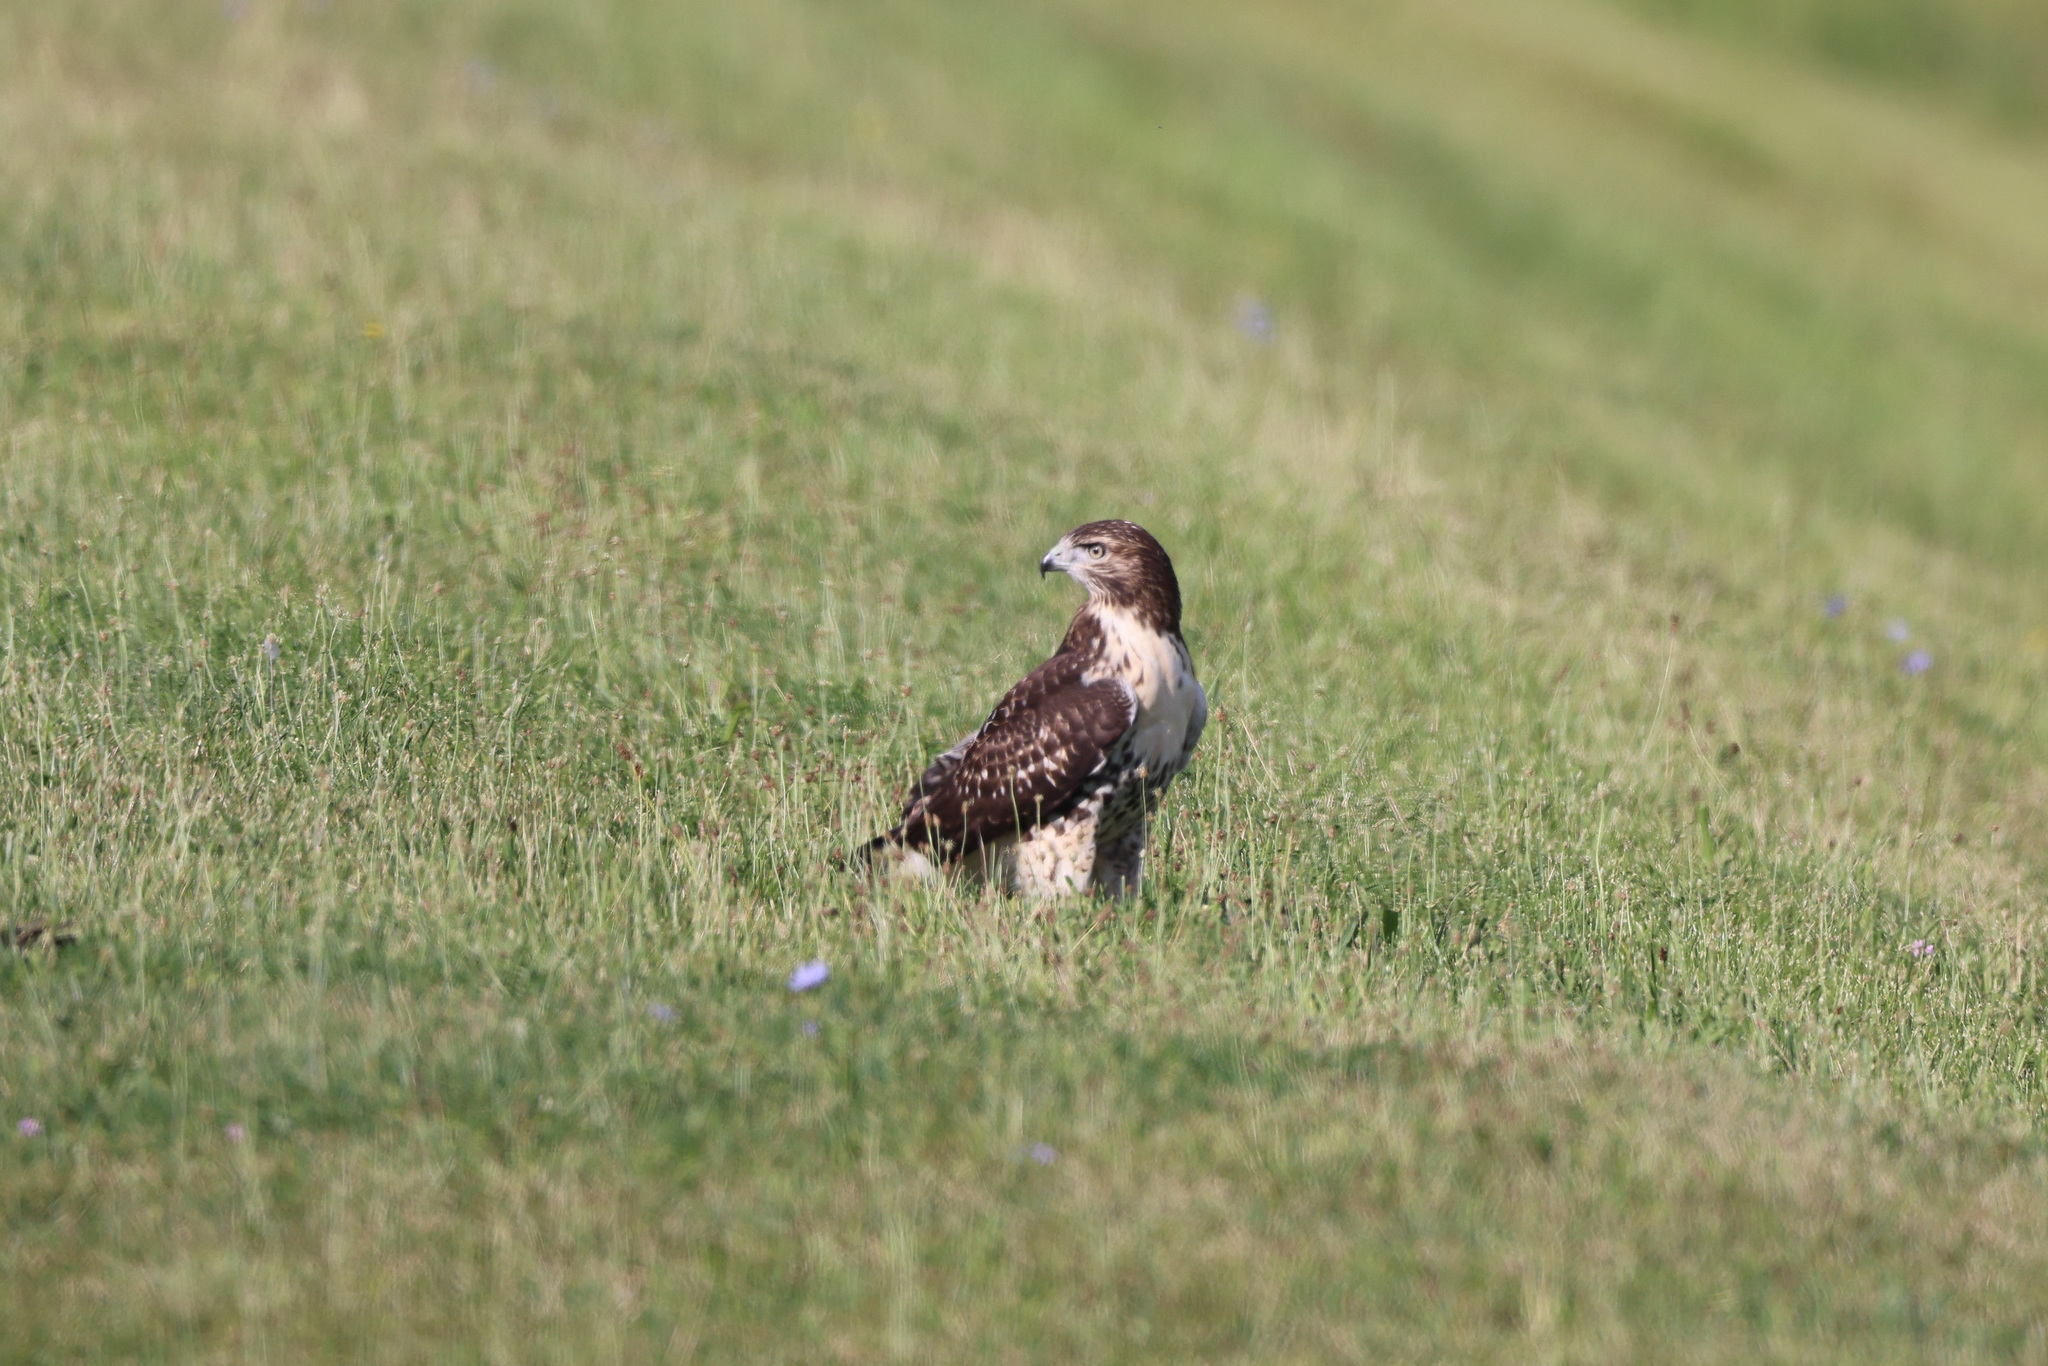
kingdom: Animalia
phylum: Chordata
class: Aves
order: Accipitriformes
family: Accipitridae
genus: Buteo
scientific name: Buteo jamaicensis
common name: Red-tailed hawk
